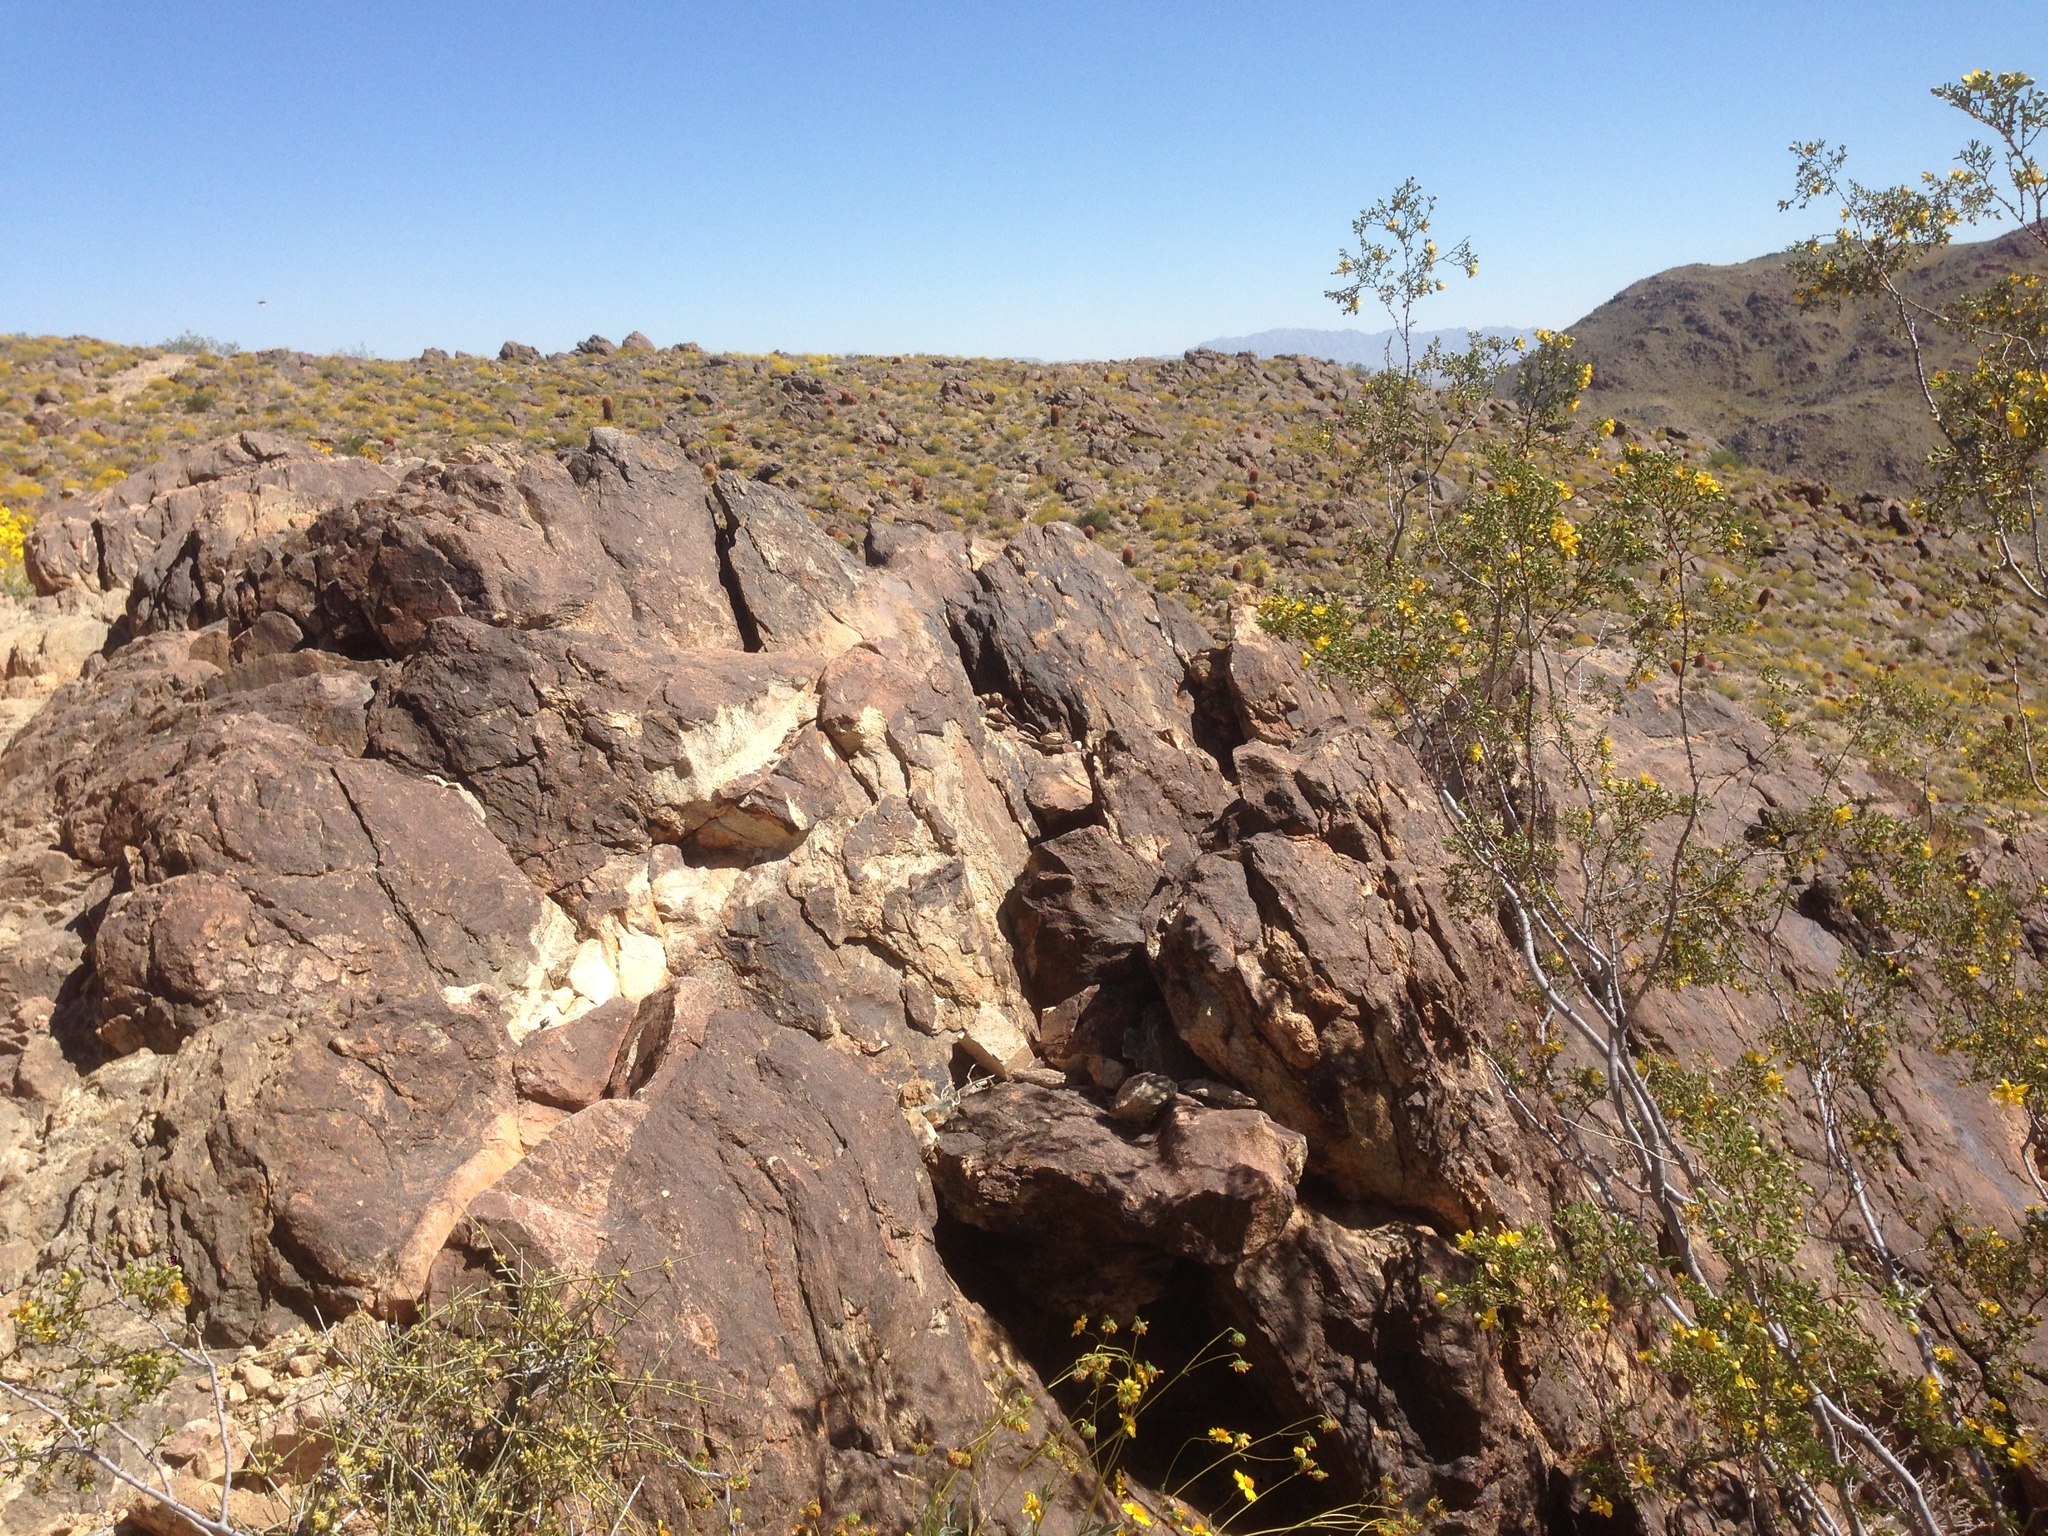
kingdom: Plantae
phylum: Tracheophyta
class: Magnoliopsida
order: Zygophyllales
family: Zygophyllaceae
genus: Larrea
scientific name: Larrea tridentata
